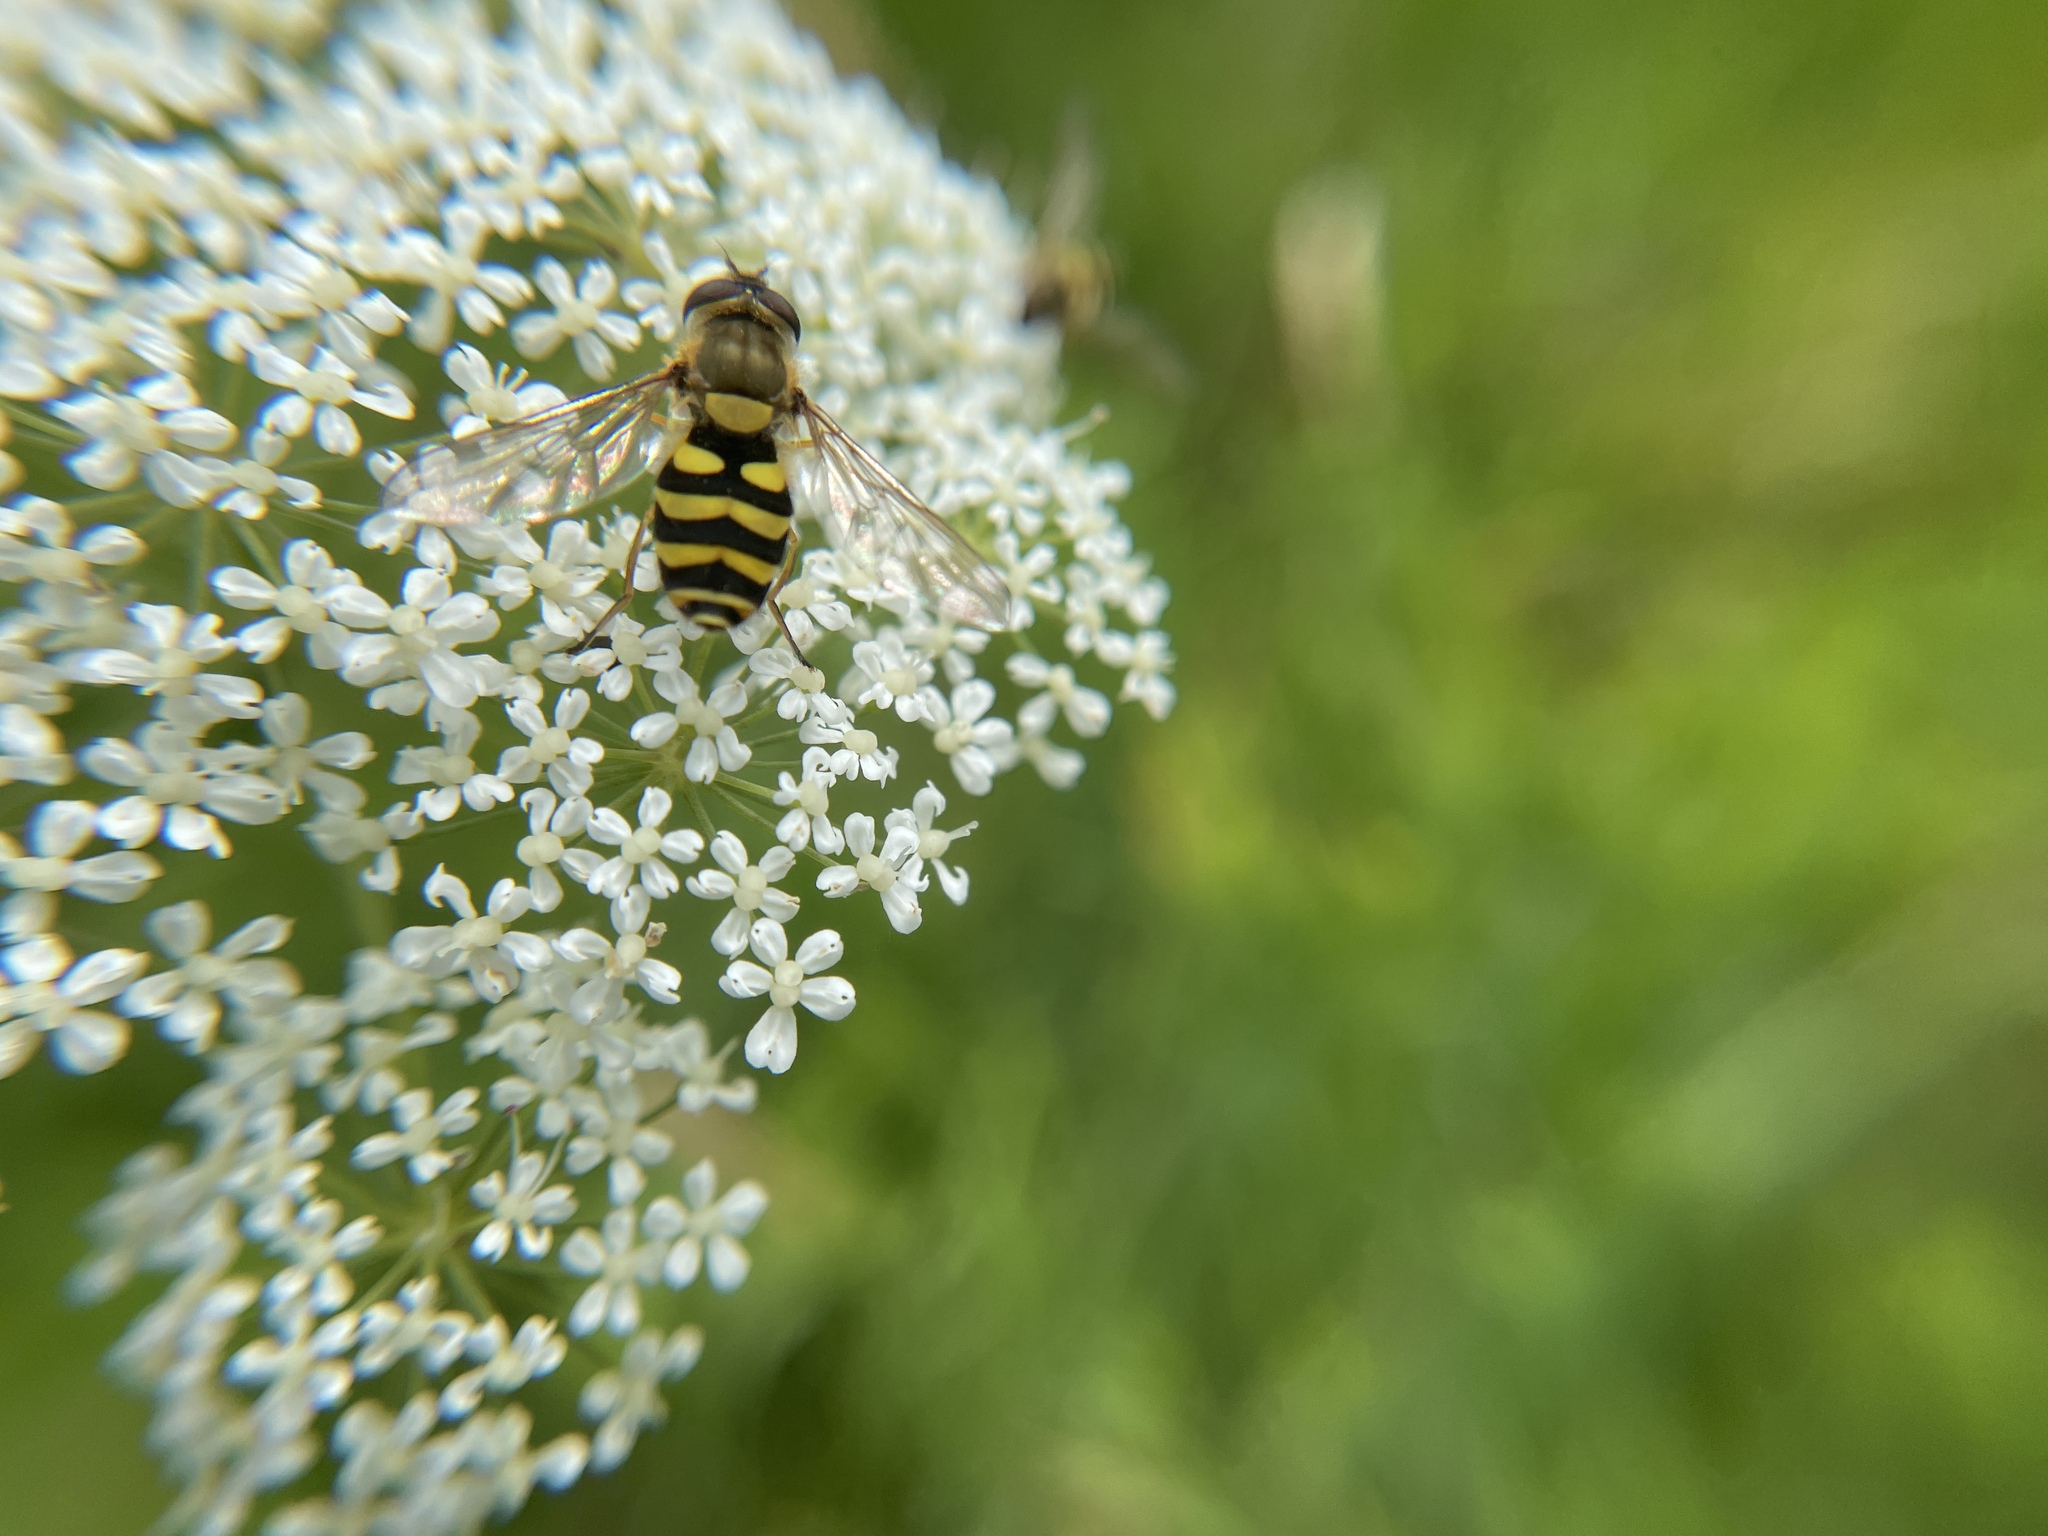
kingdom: Animalia
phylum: Arthropoda
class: Insecta
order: Diptera
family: Syrphidae
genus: Syrphus
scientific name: Syrphus
